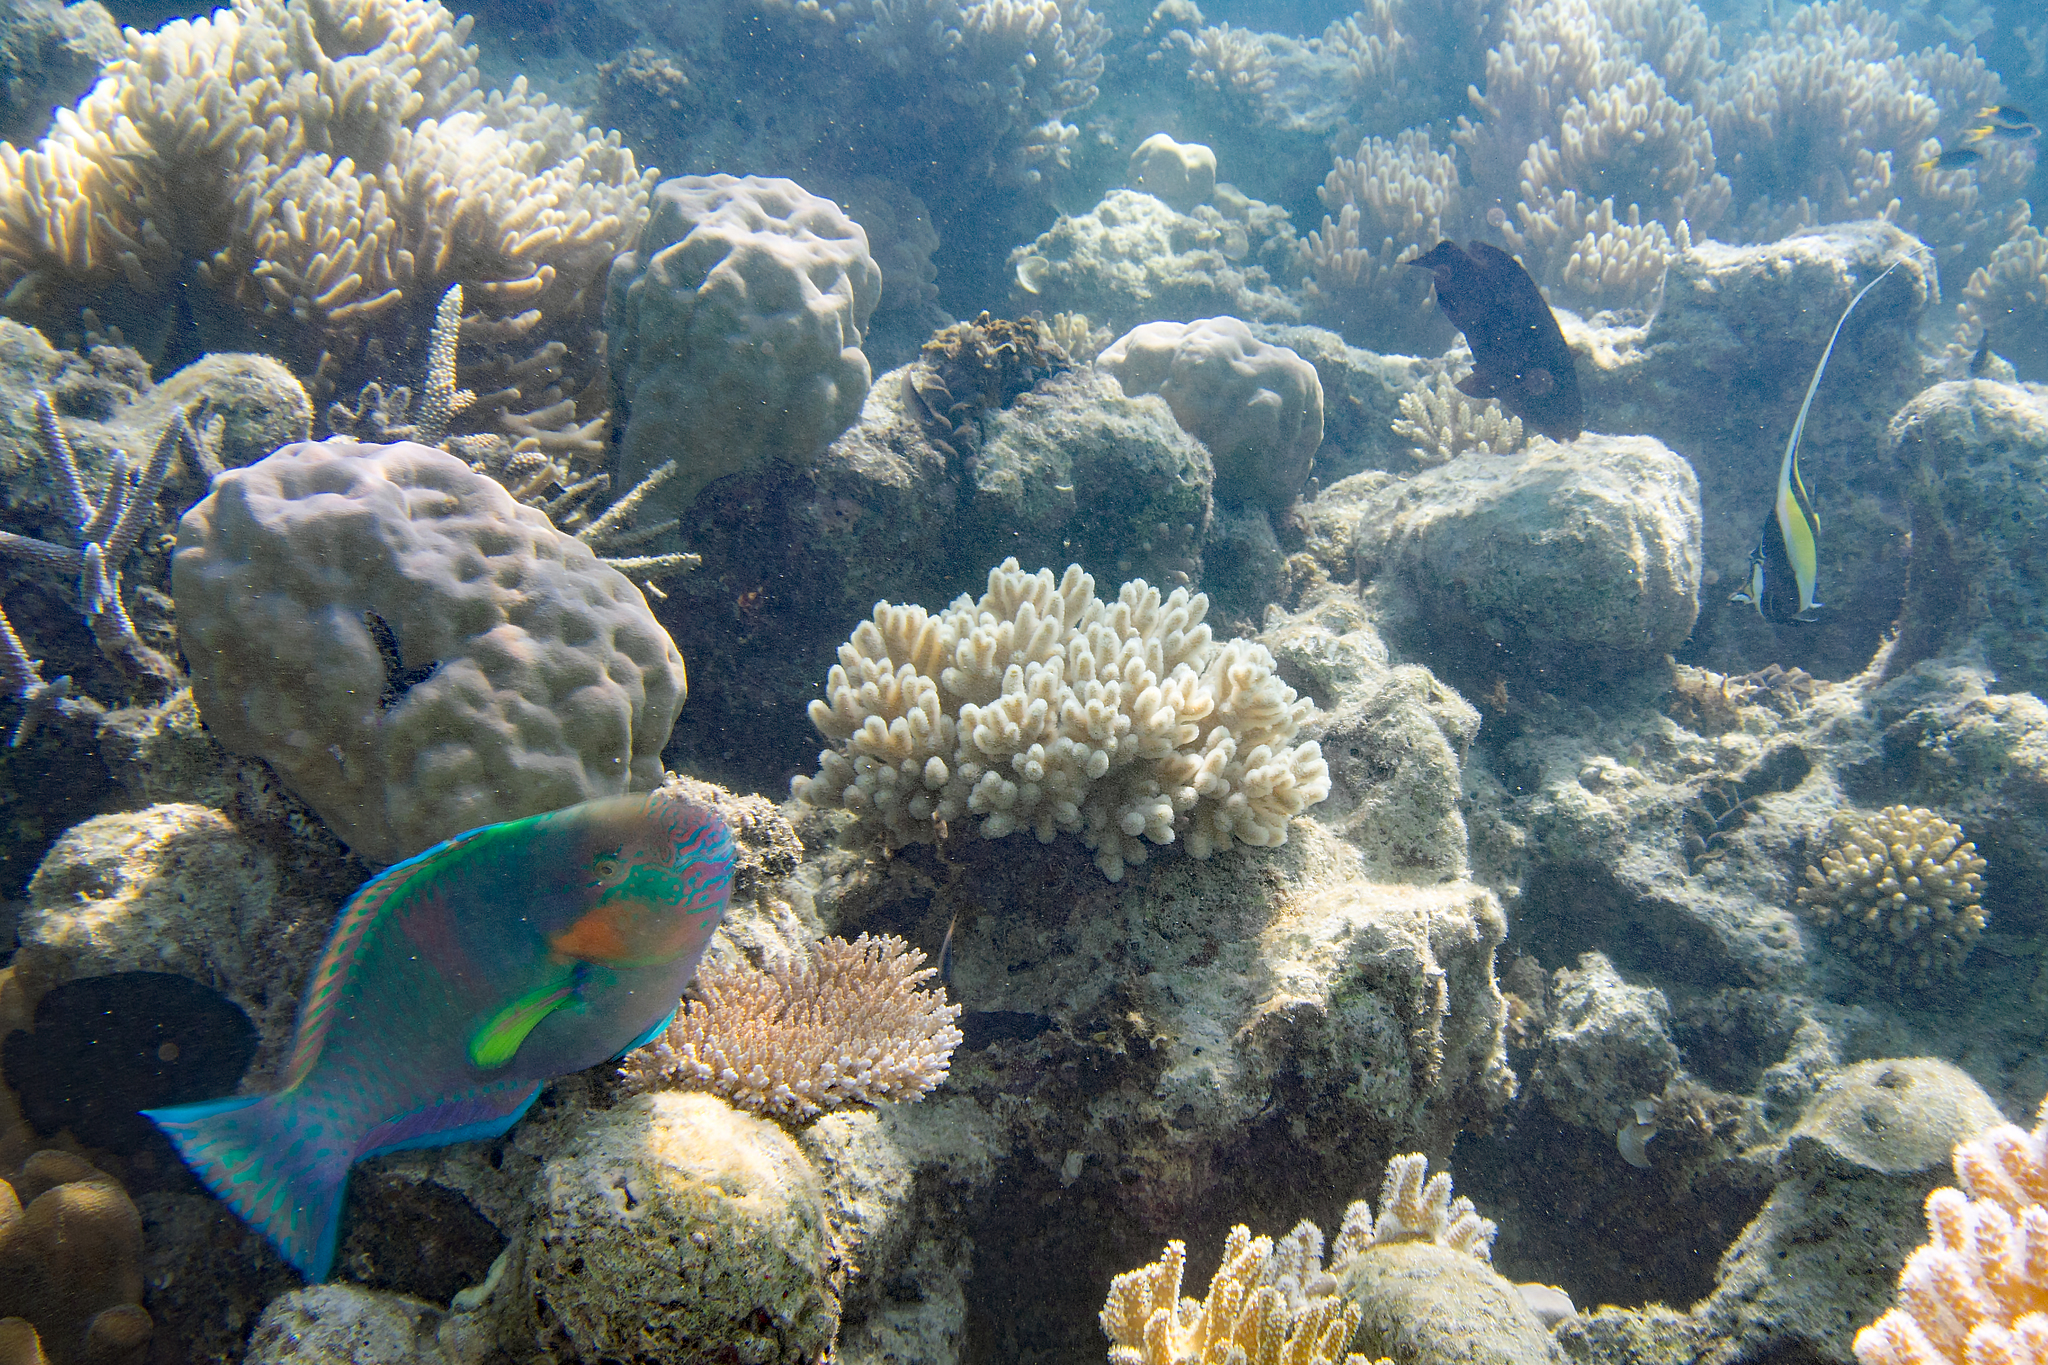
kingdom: Animalia
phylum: Chordata
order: Perciformes
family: Zanclidae
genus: Zanclus
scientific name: Zanclus cornutus
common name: Moorish idol
